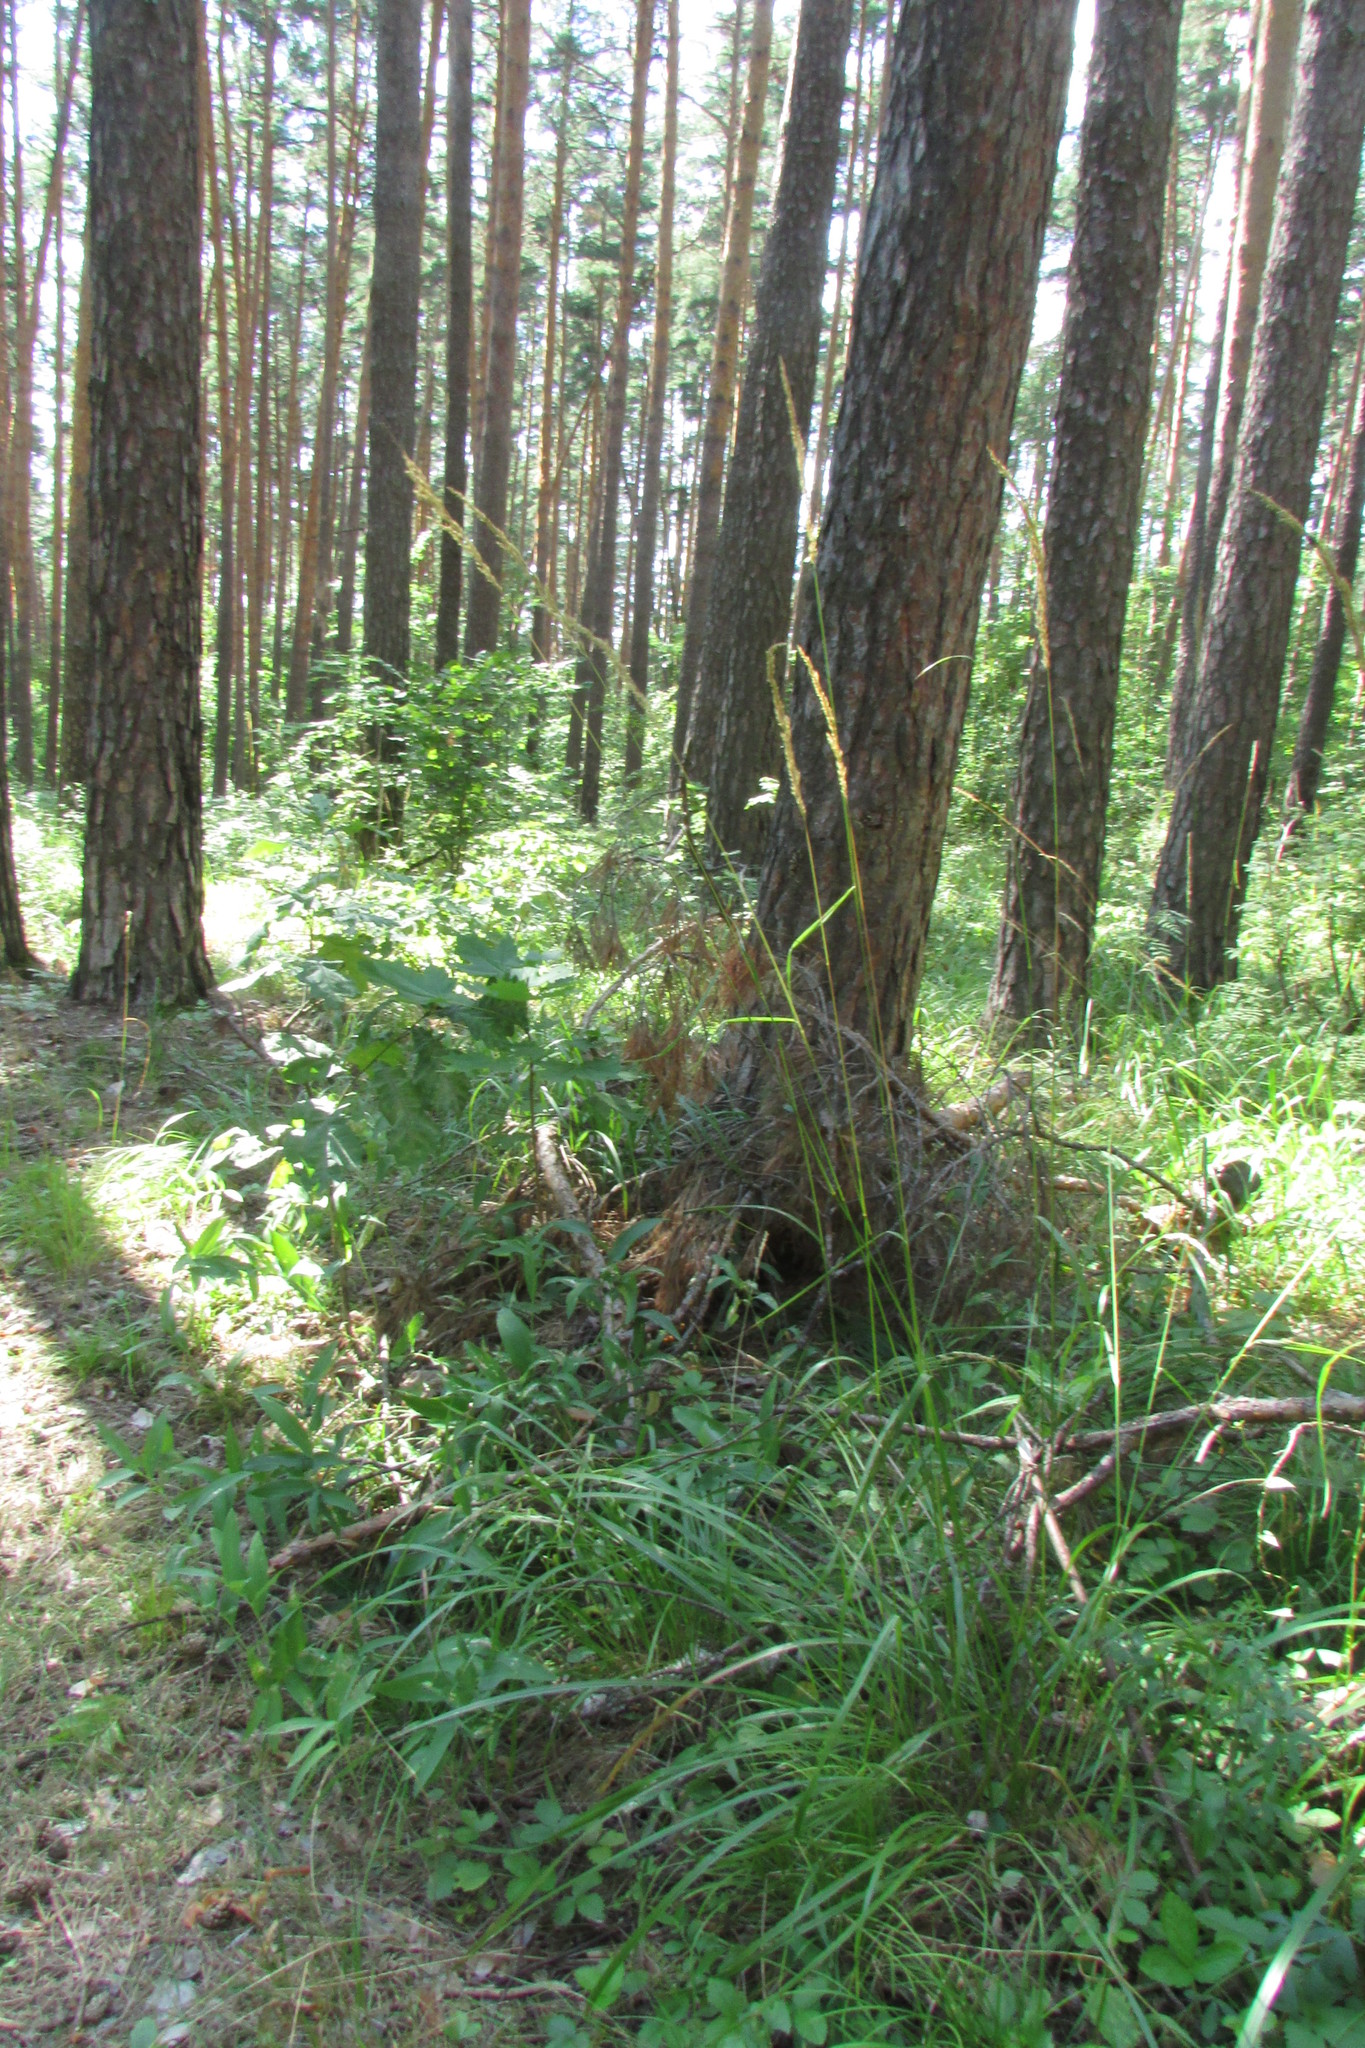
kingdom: Plantae
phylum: Tracheophyta
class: Liliopsida
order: Poales
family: Poaceae
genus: Calamagrostis
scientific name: Calamagrostis arundinacea
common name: Metskastik
